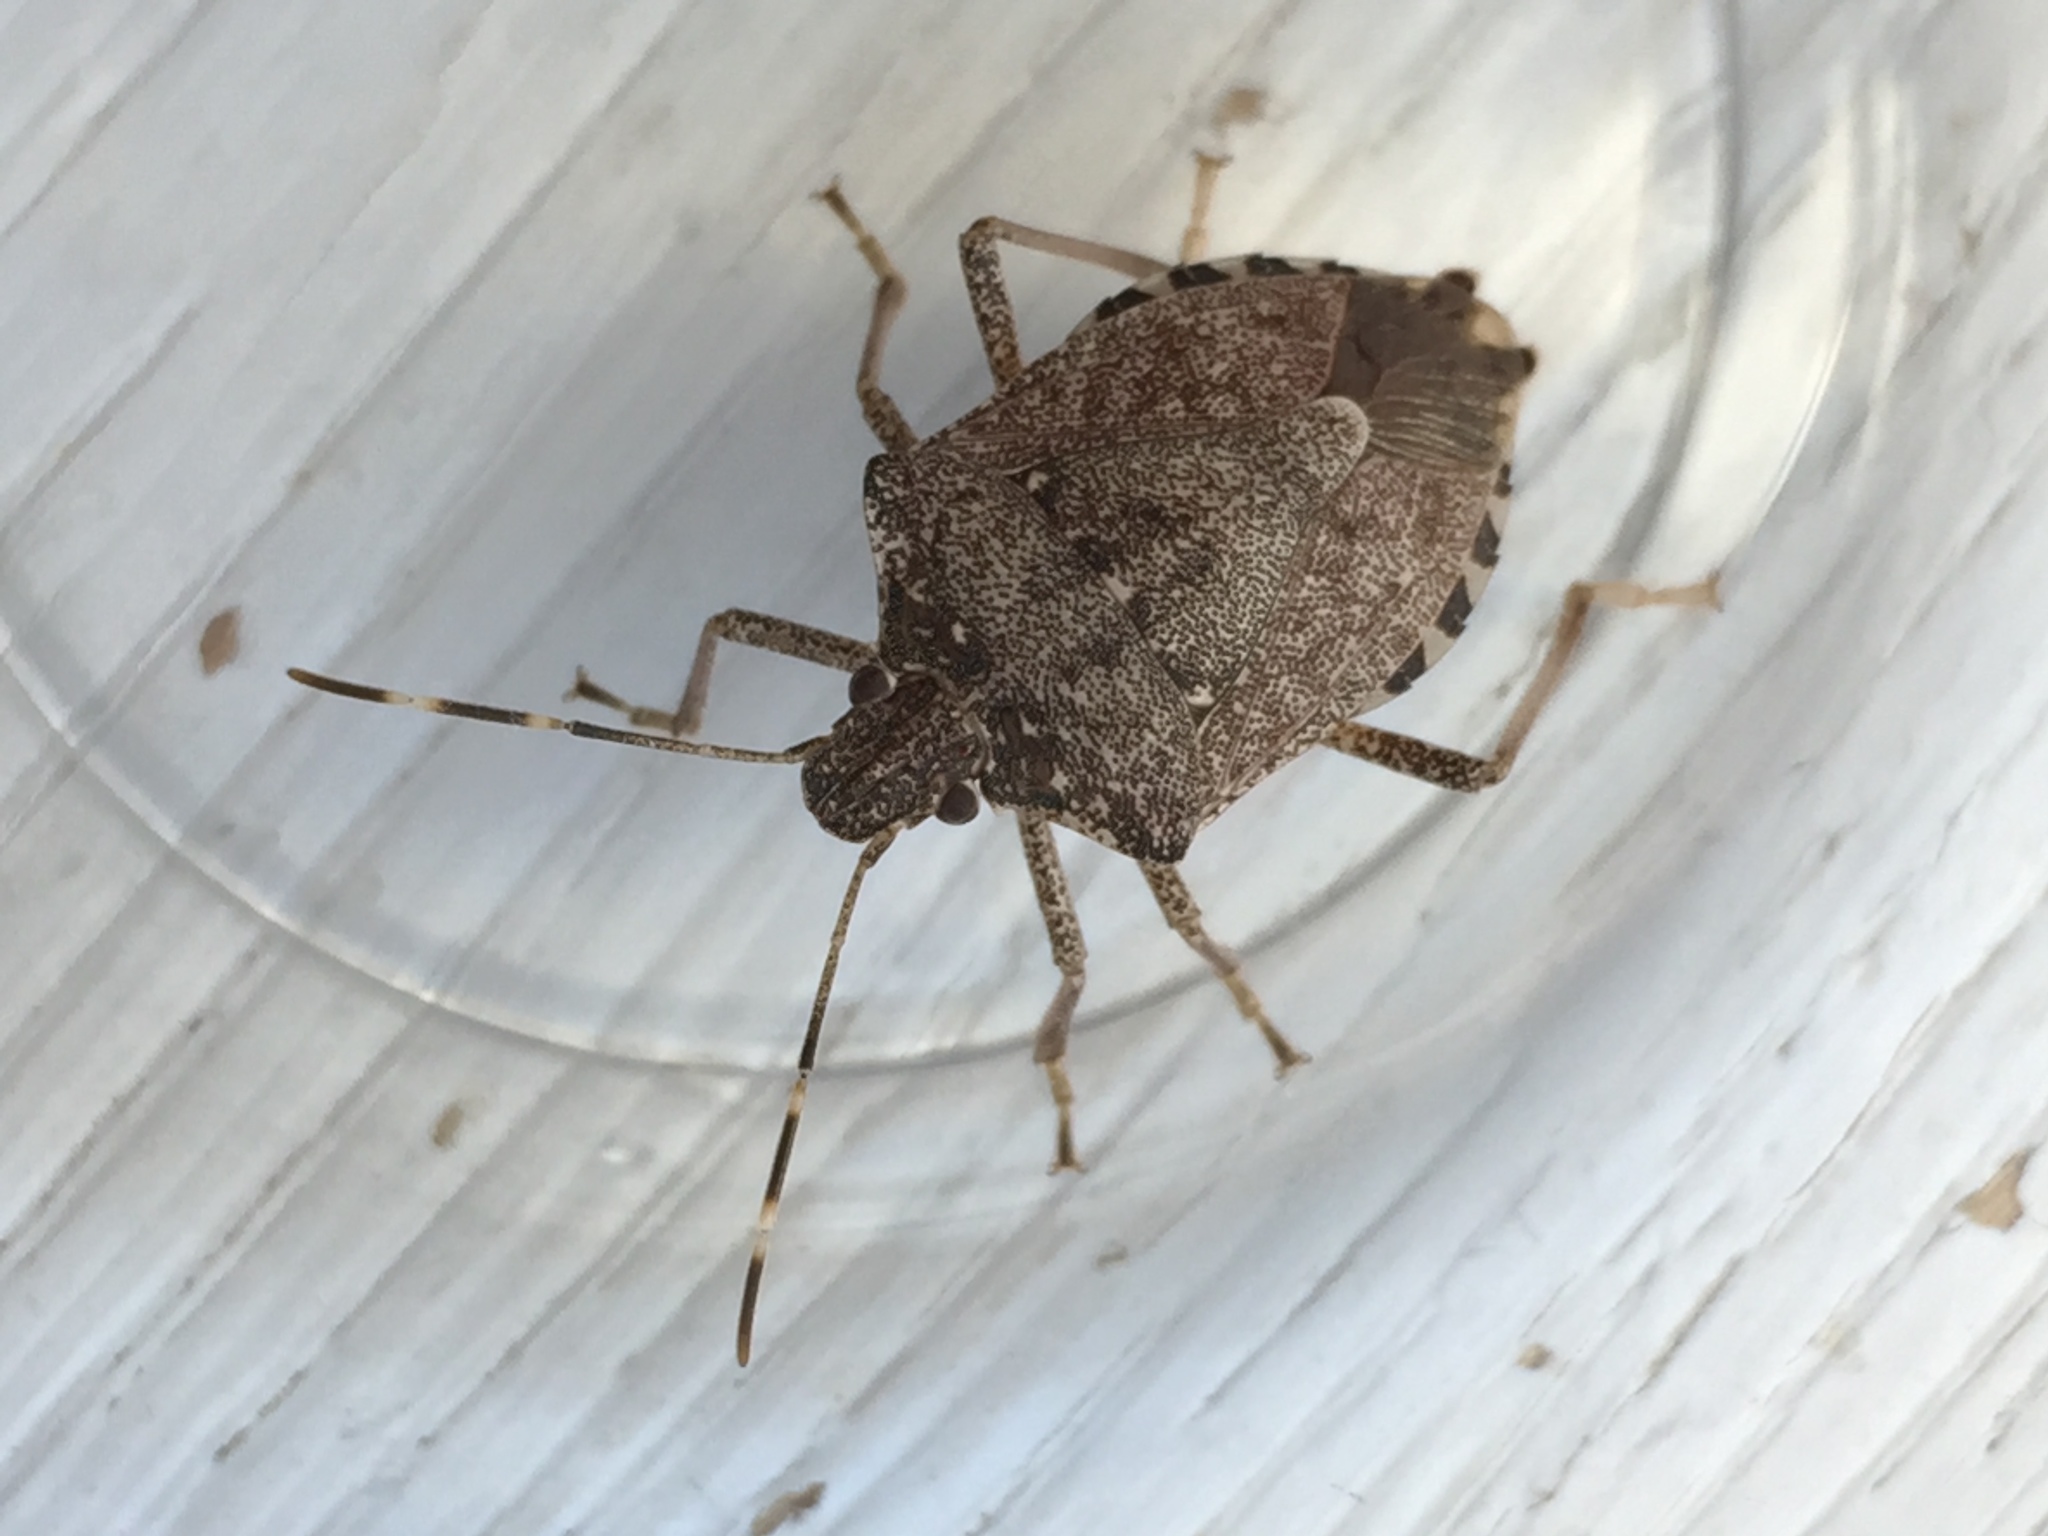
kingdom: Animalia
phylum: Arthropoda
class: Insecta
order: Hemiptera
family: Pentatomidae
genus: Halyomorpha
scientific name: Halyomorpha halys
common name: Brown marmorated stink bug
